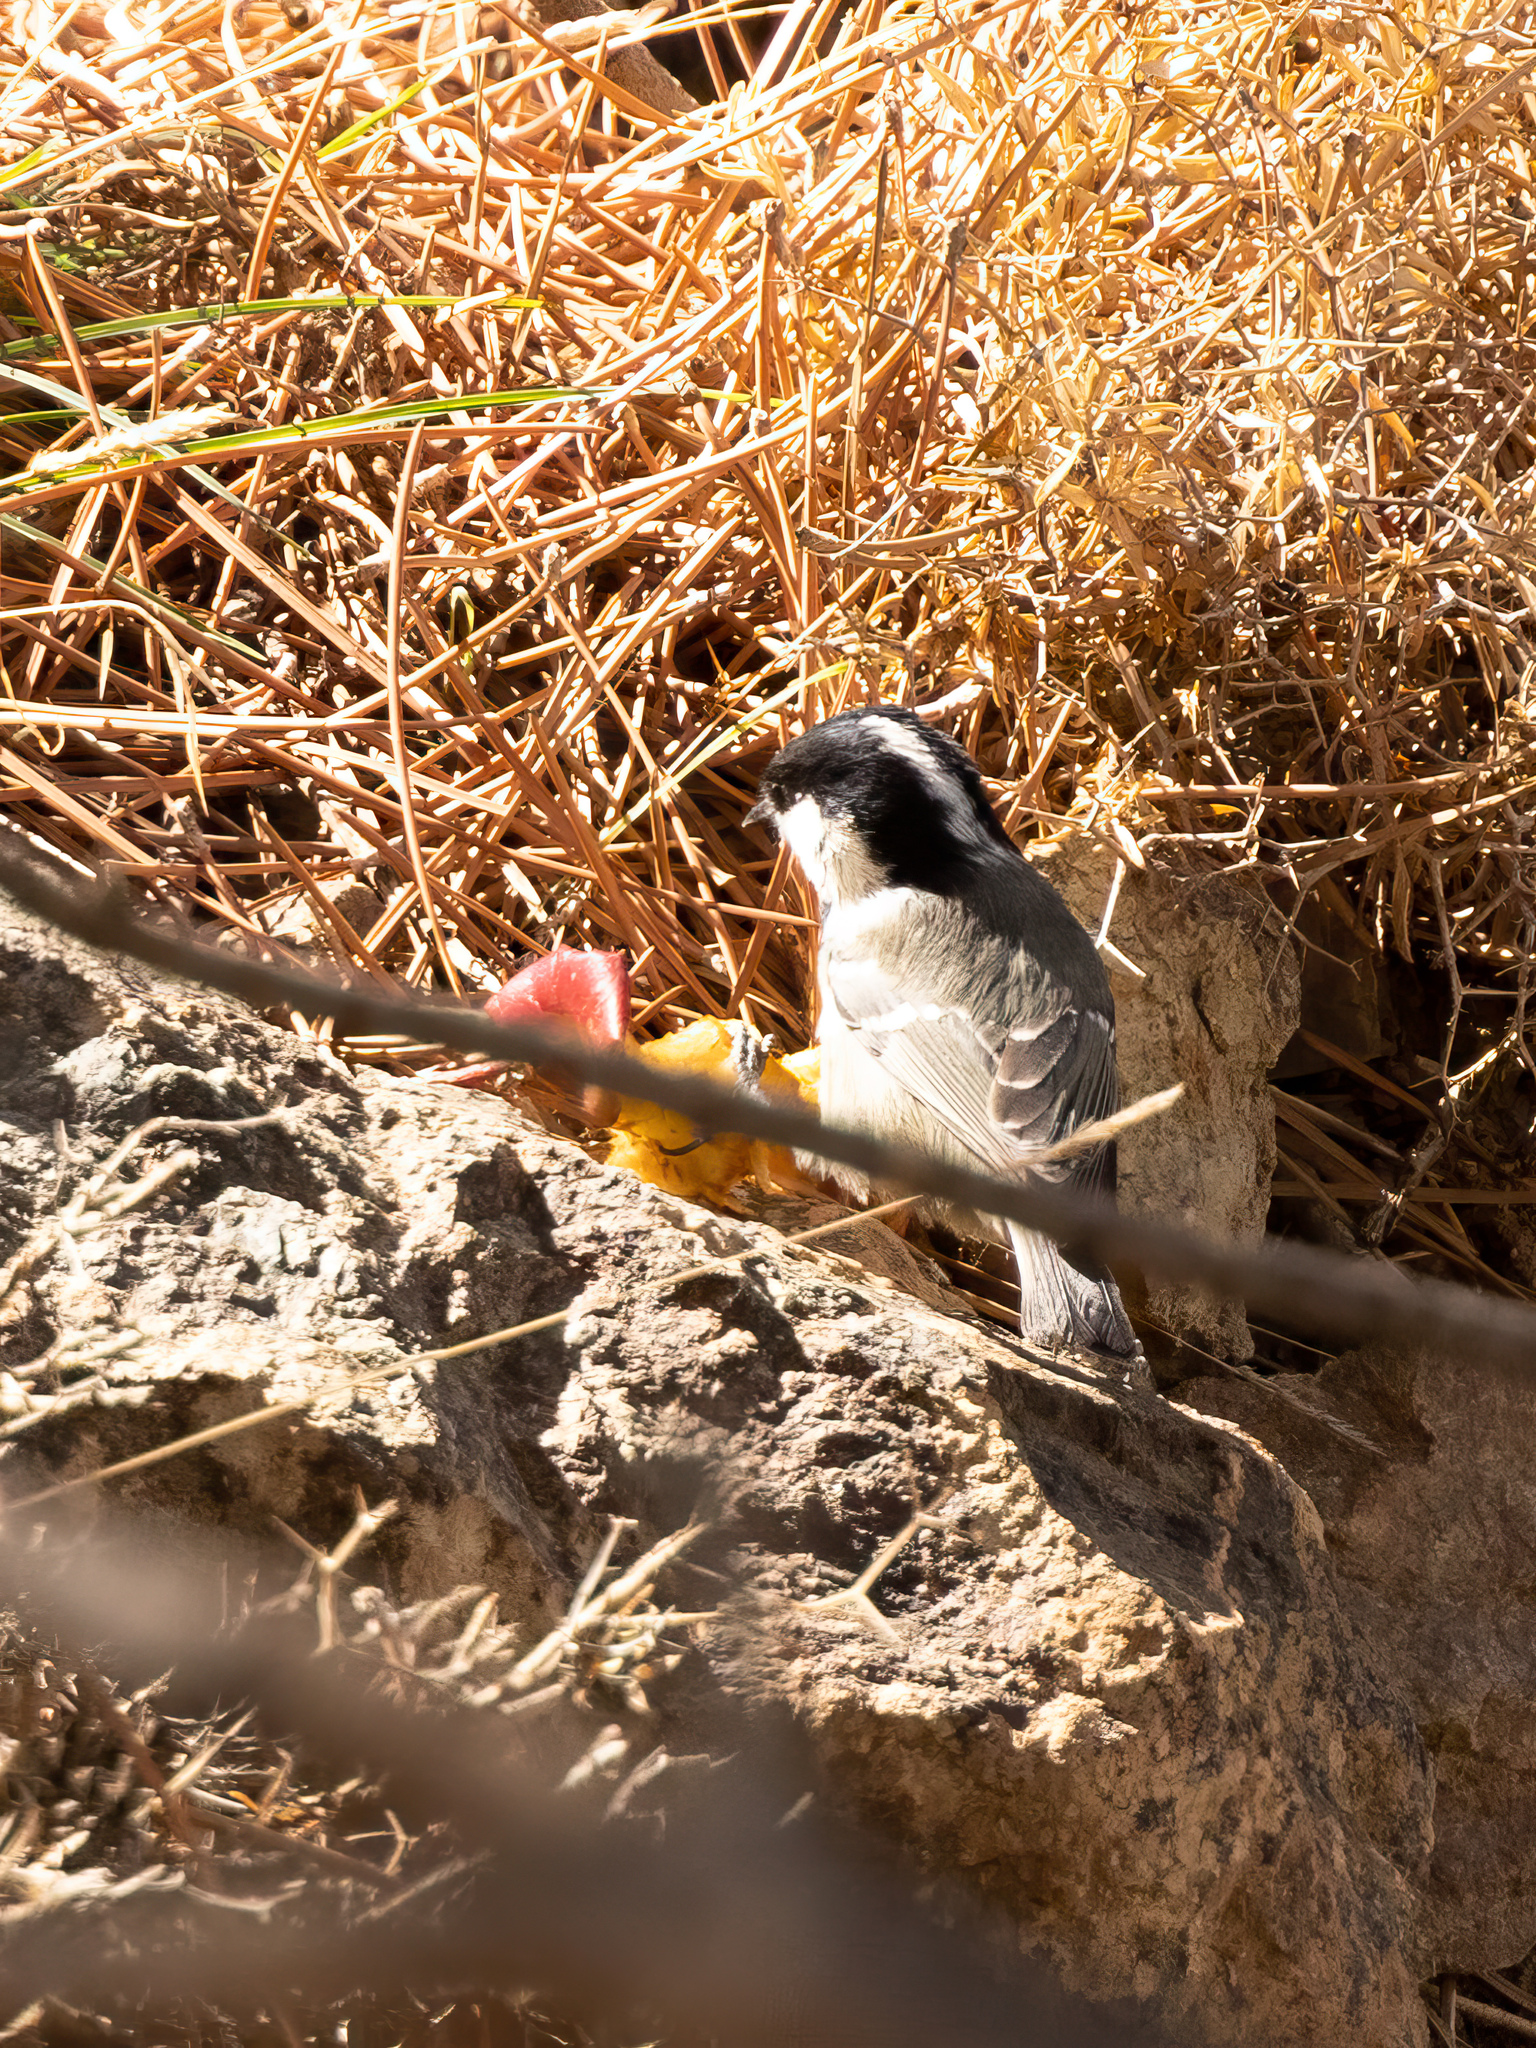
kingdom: Animalia
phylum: Chordata
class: Aves
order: Passeriformes
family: Paridae
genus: Periparus
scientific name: Periparus ater
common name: Coal tit
